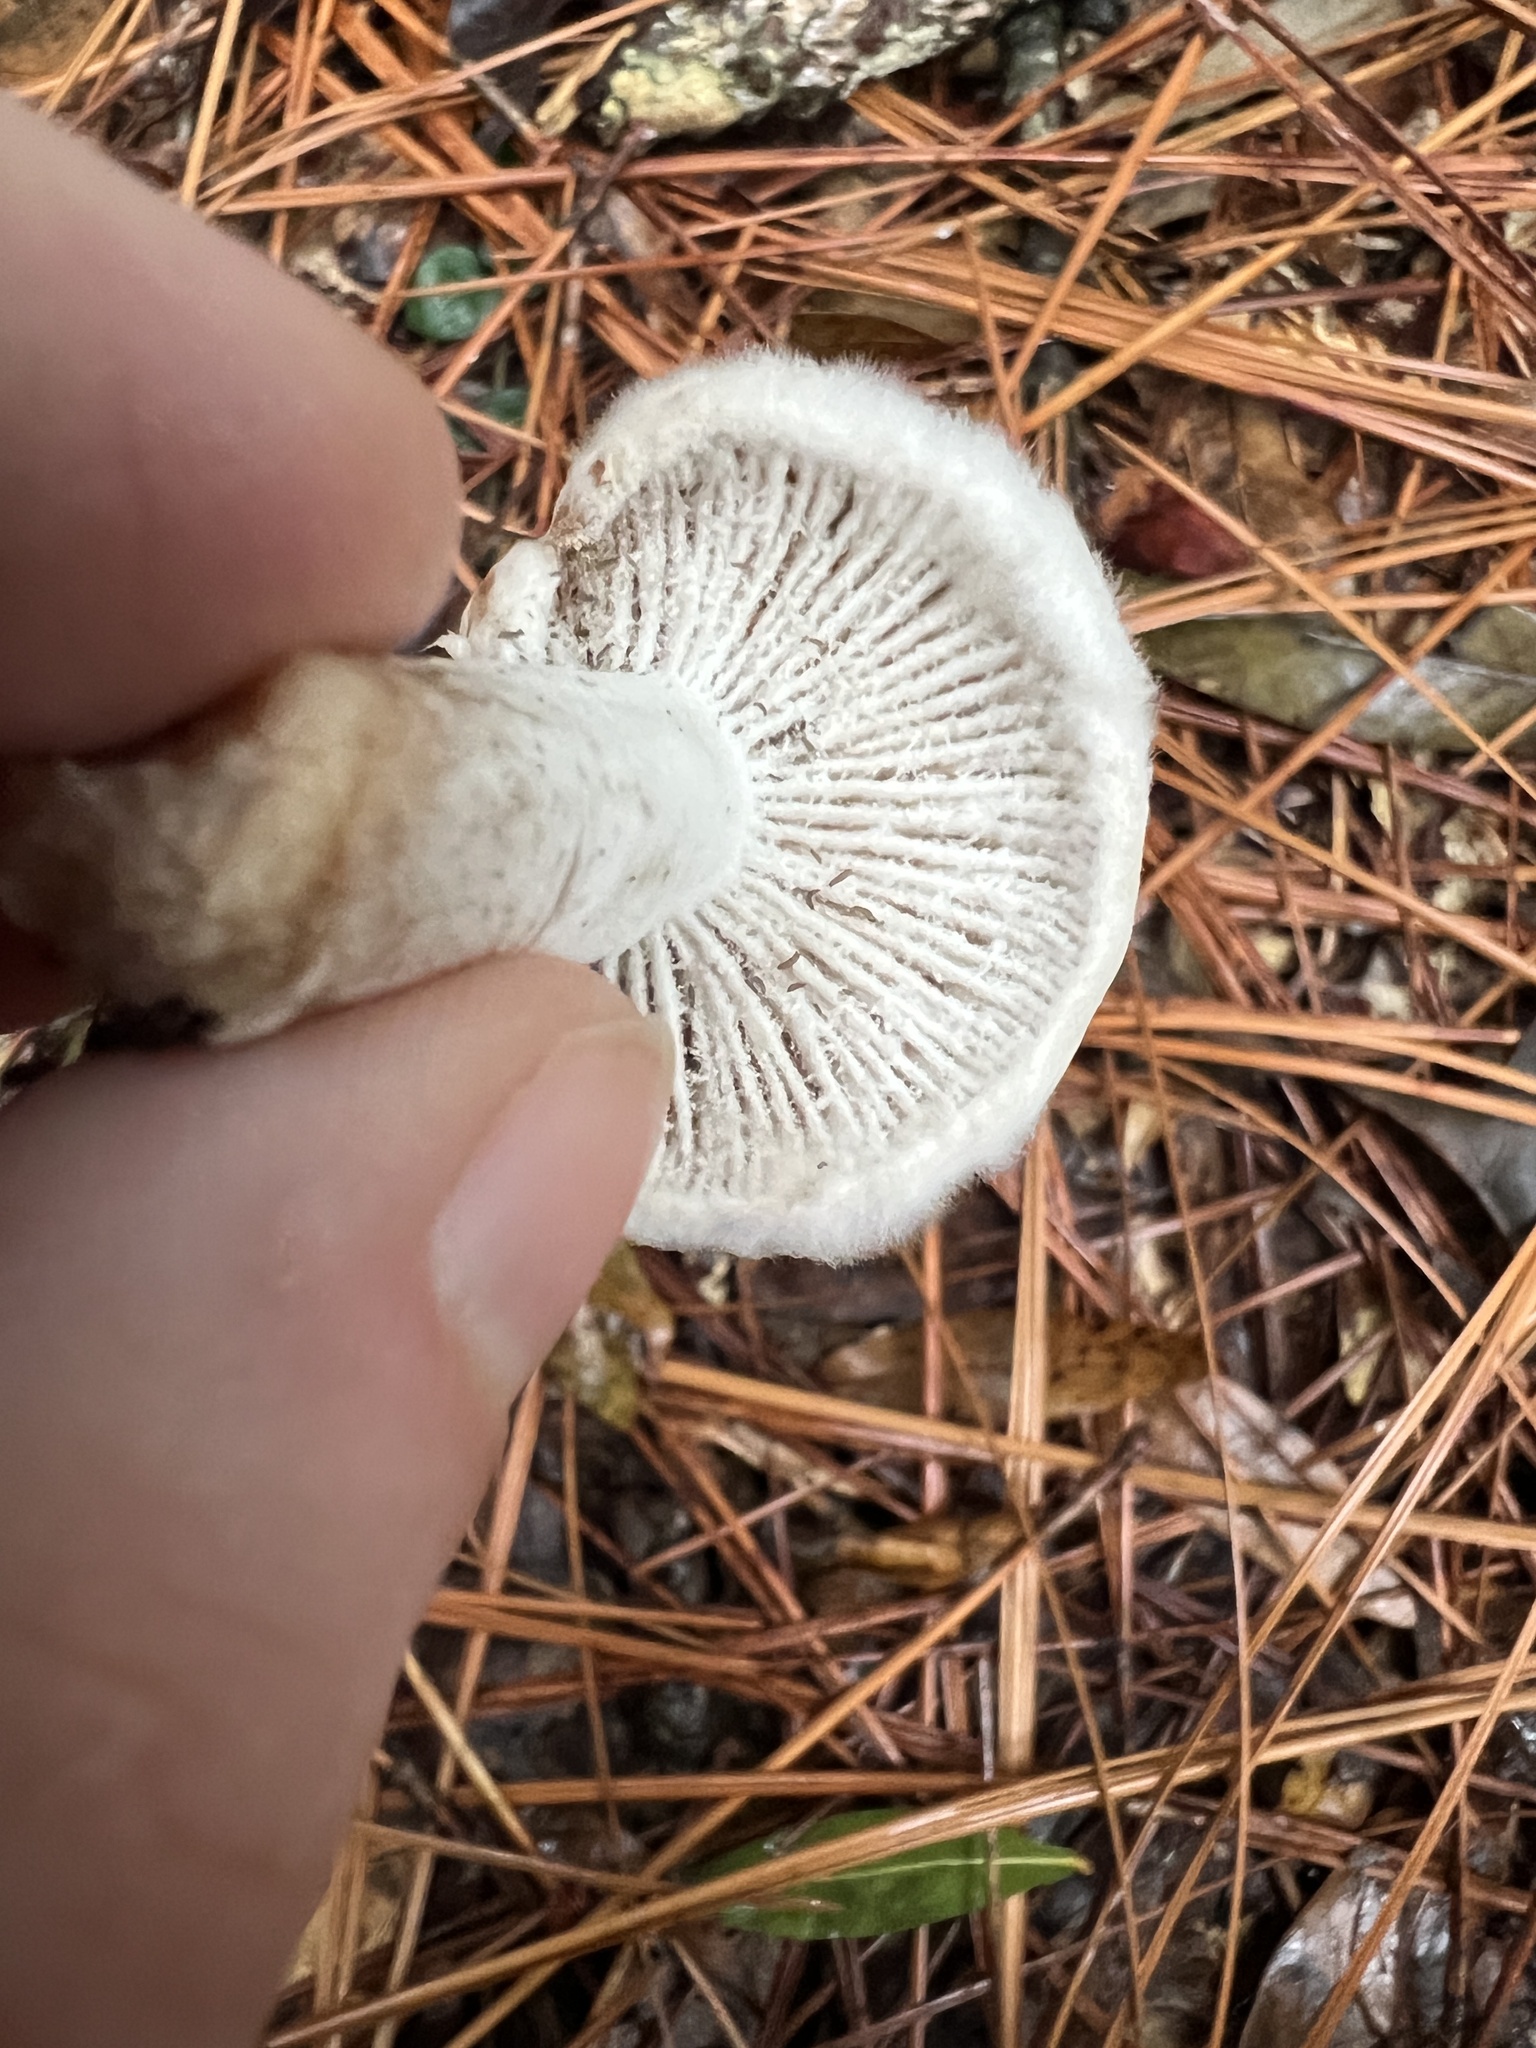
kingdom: Fungi
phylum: Ascomycota
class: Sordariomycetes
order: Hypocreales
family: Hypocreaceae
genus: Hypomyces
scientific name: Hypomyces armeniacus
